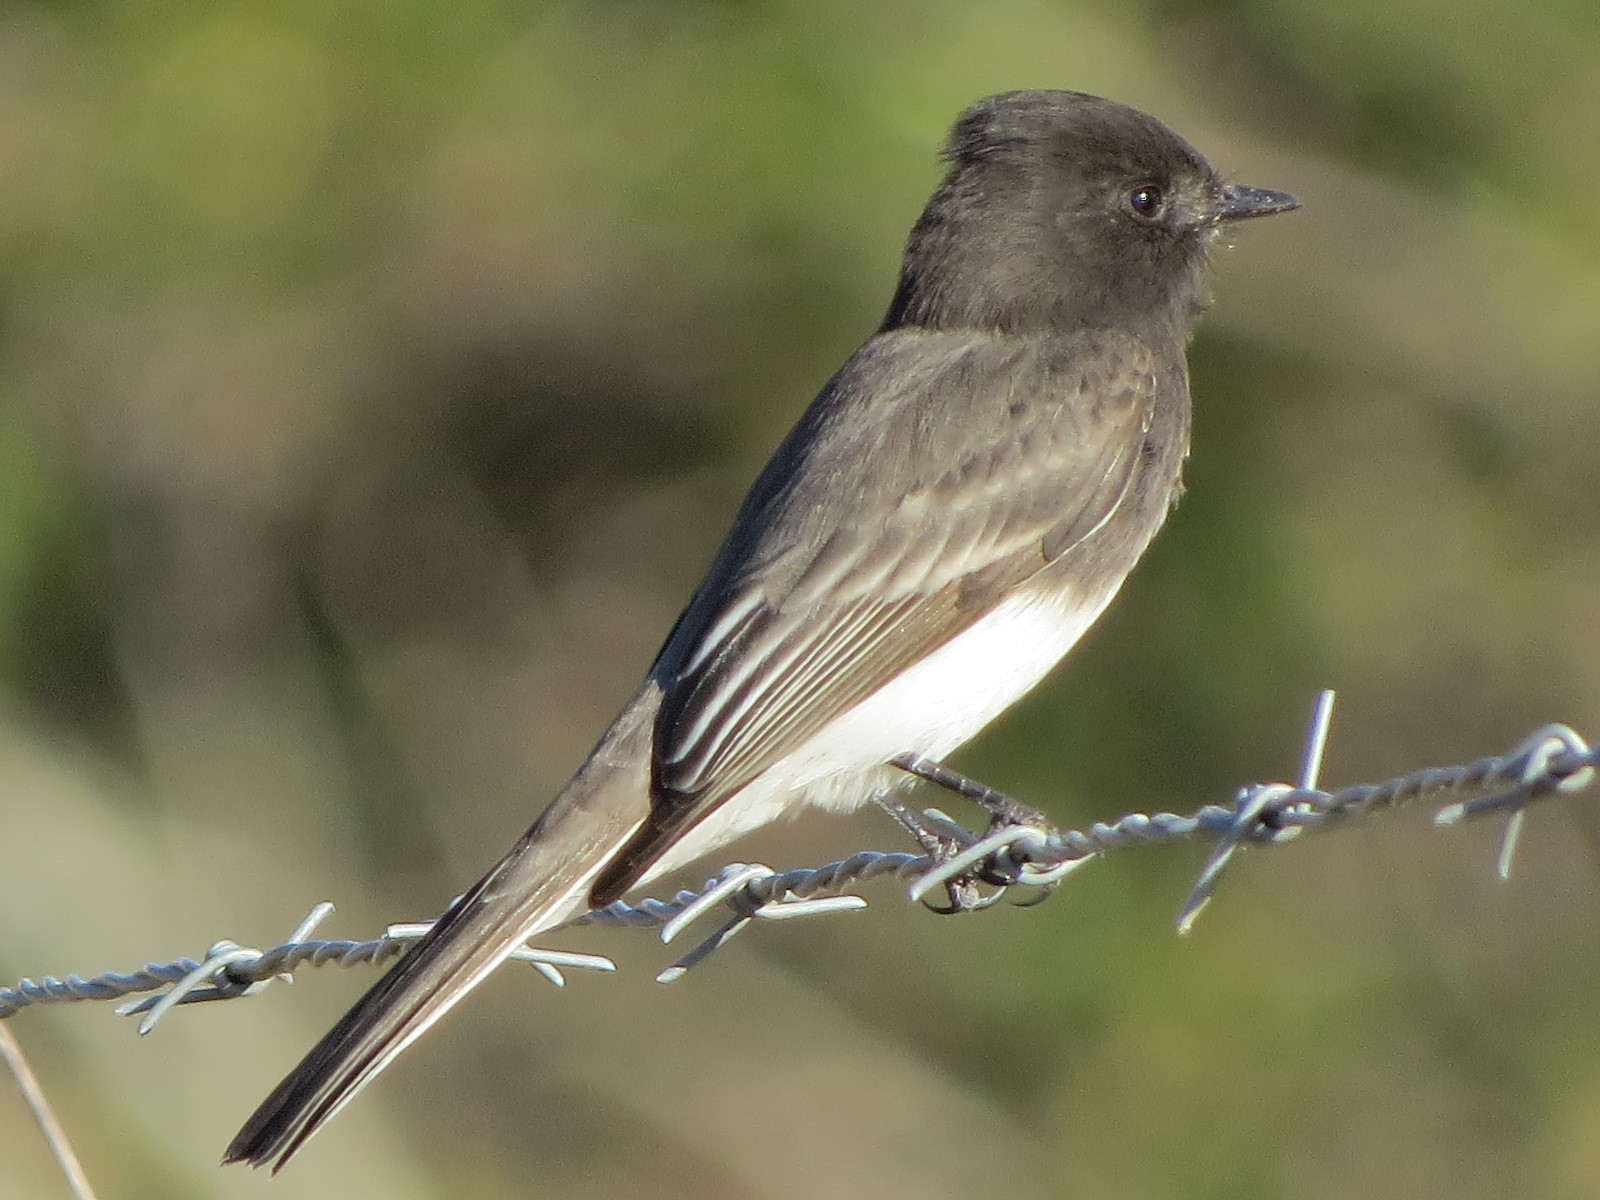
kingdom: Animalia
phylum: Chordata
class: Aves
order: Passeriformes
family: Tyrannidae
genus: Sayornis
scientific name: Sayornis nigricans
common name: Black phoebe
